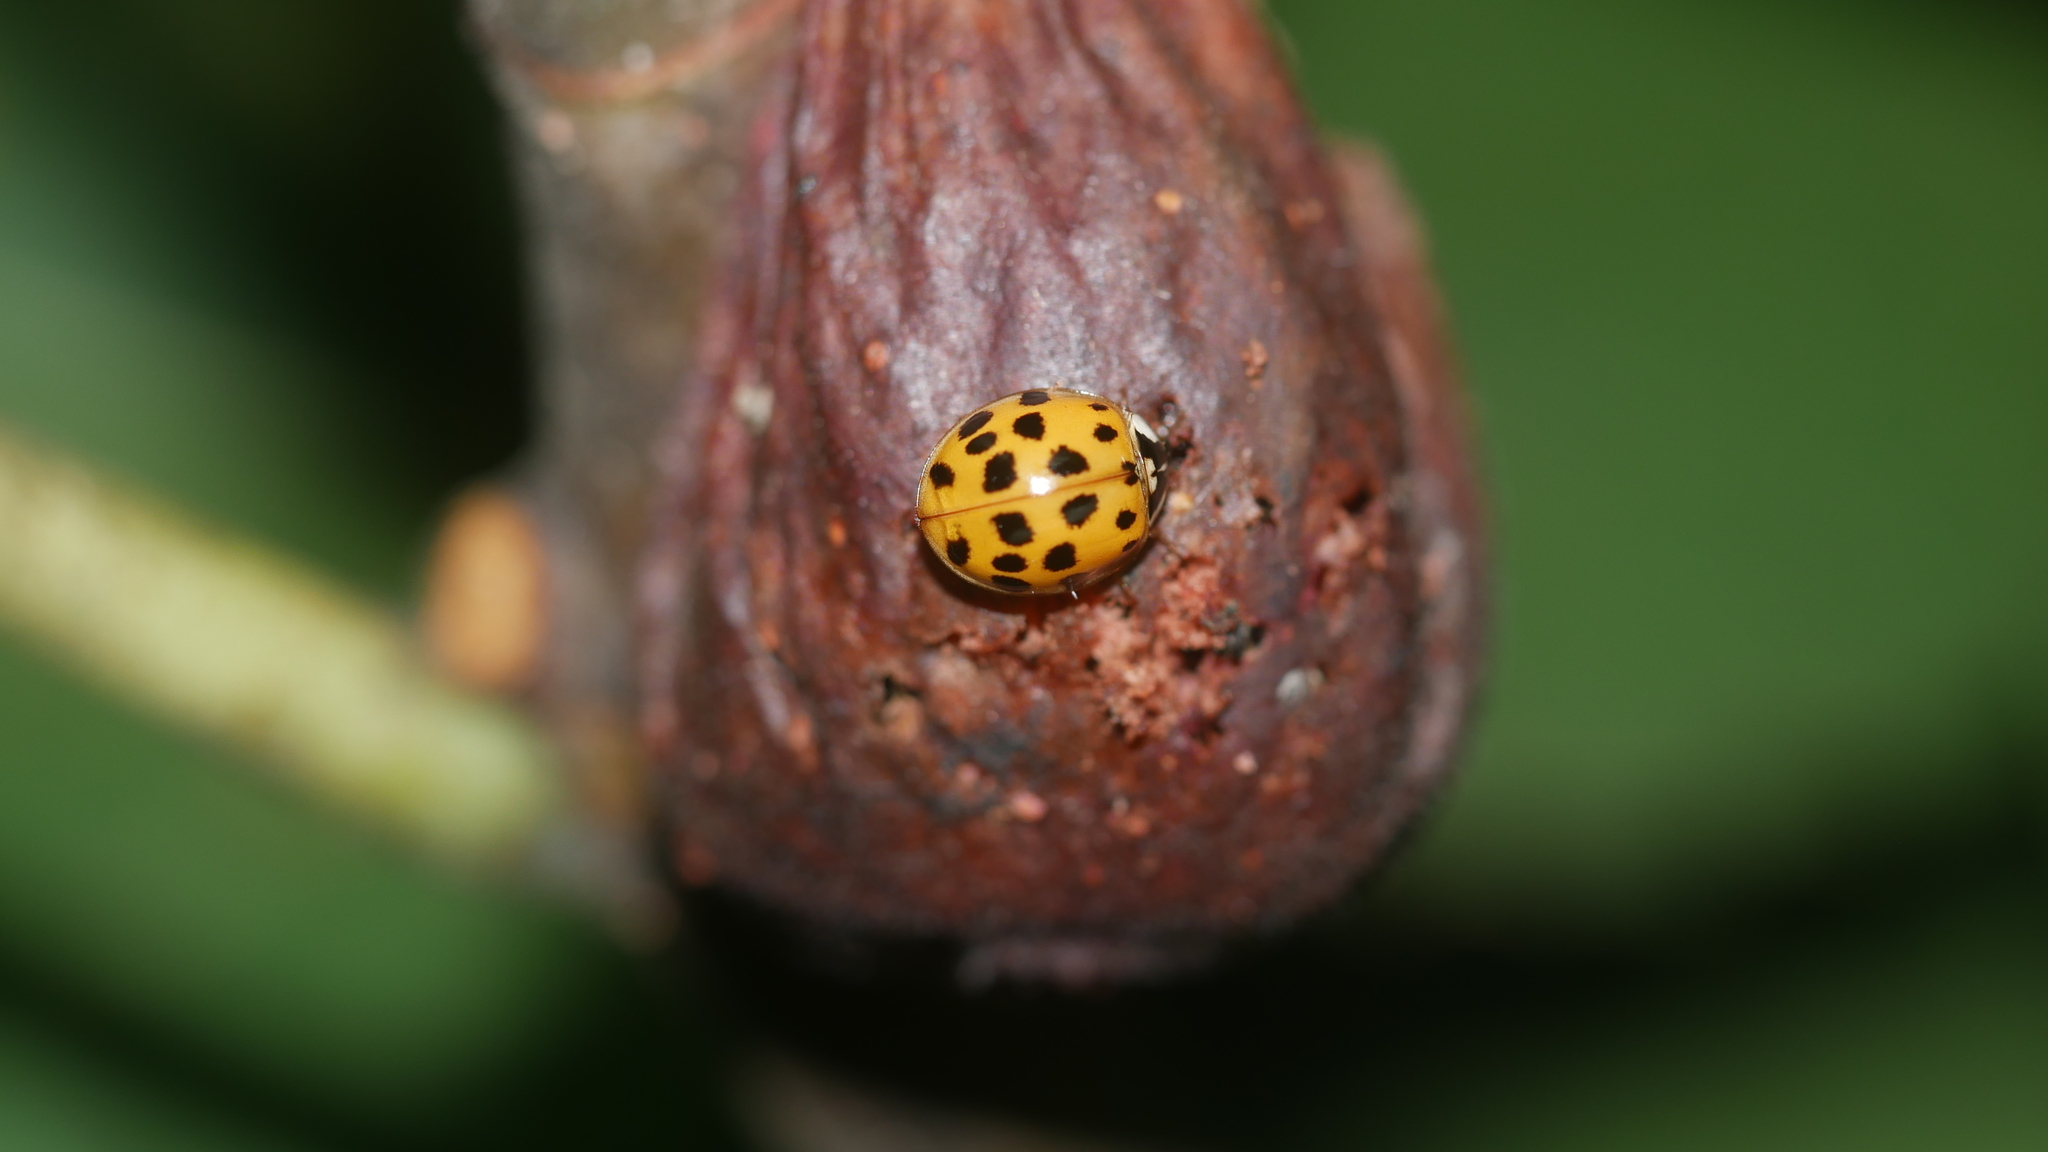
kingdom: Animalia
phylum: Arthropoda
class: Insecta
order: Coleoptera
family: Coccinellidae
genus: Harmonia
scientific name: Harmonia axyridis
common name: Harlequin ladybird
